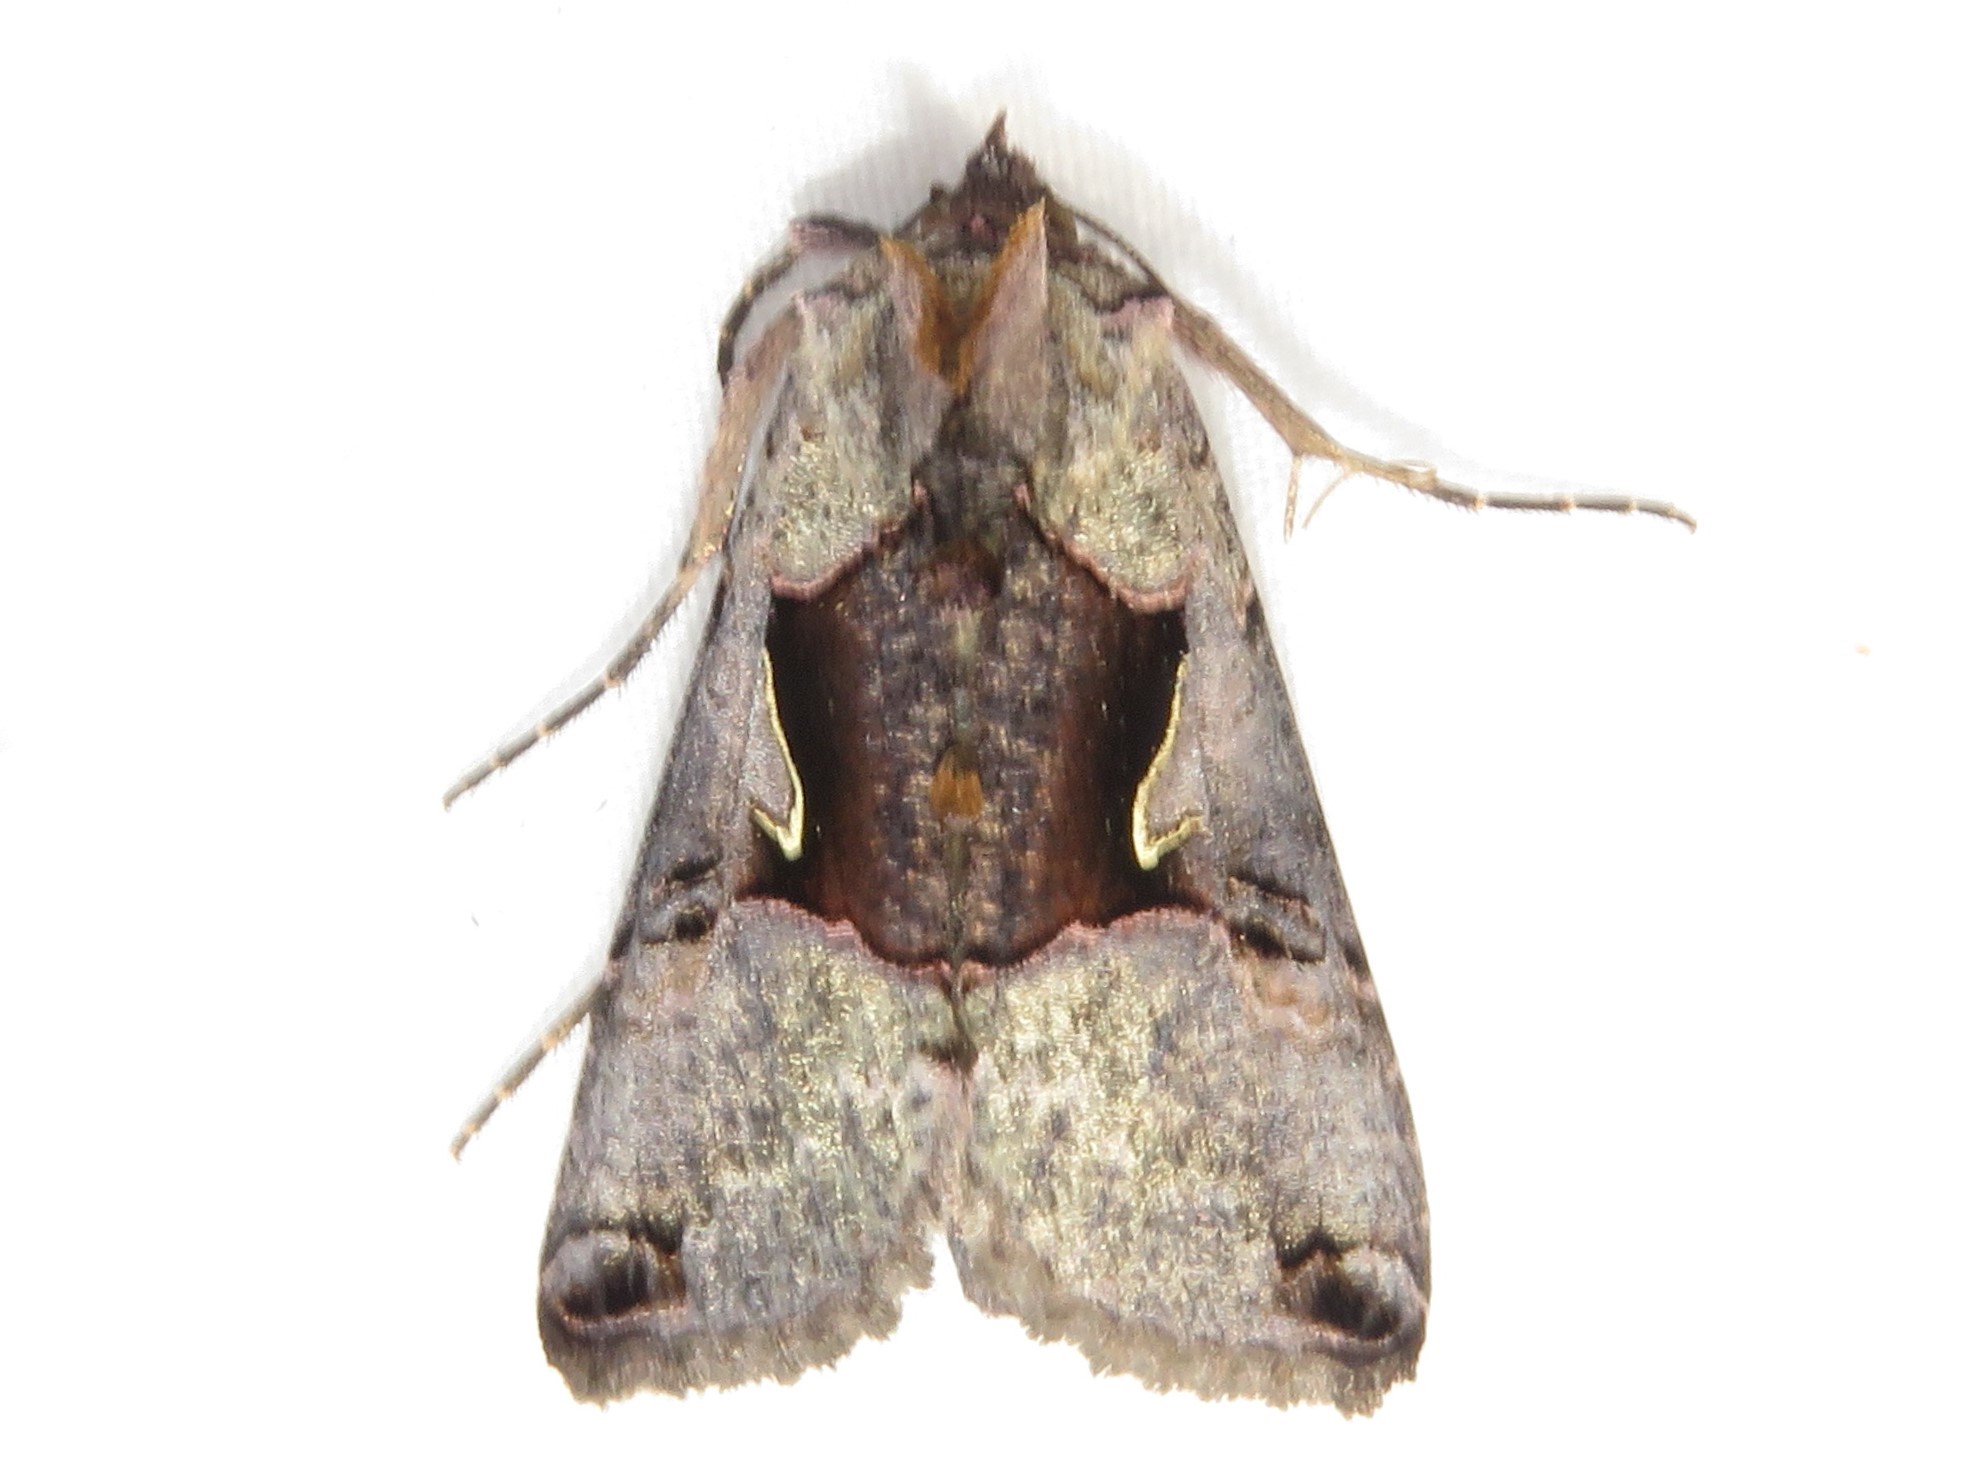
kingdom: Animalia
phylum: Arthropoda
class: Insecta
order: Lepidoptera
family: Noctuidae
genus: Autographa
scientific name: Autographa ampla
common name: Large looper moth
